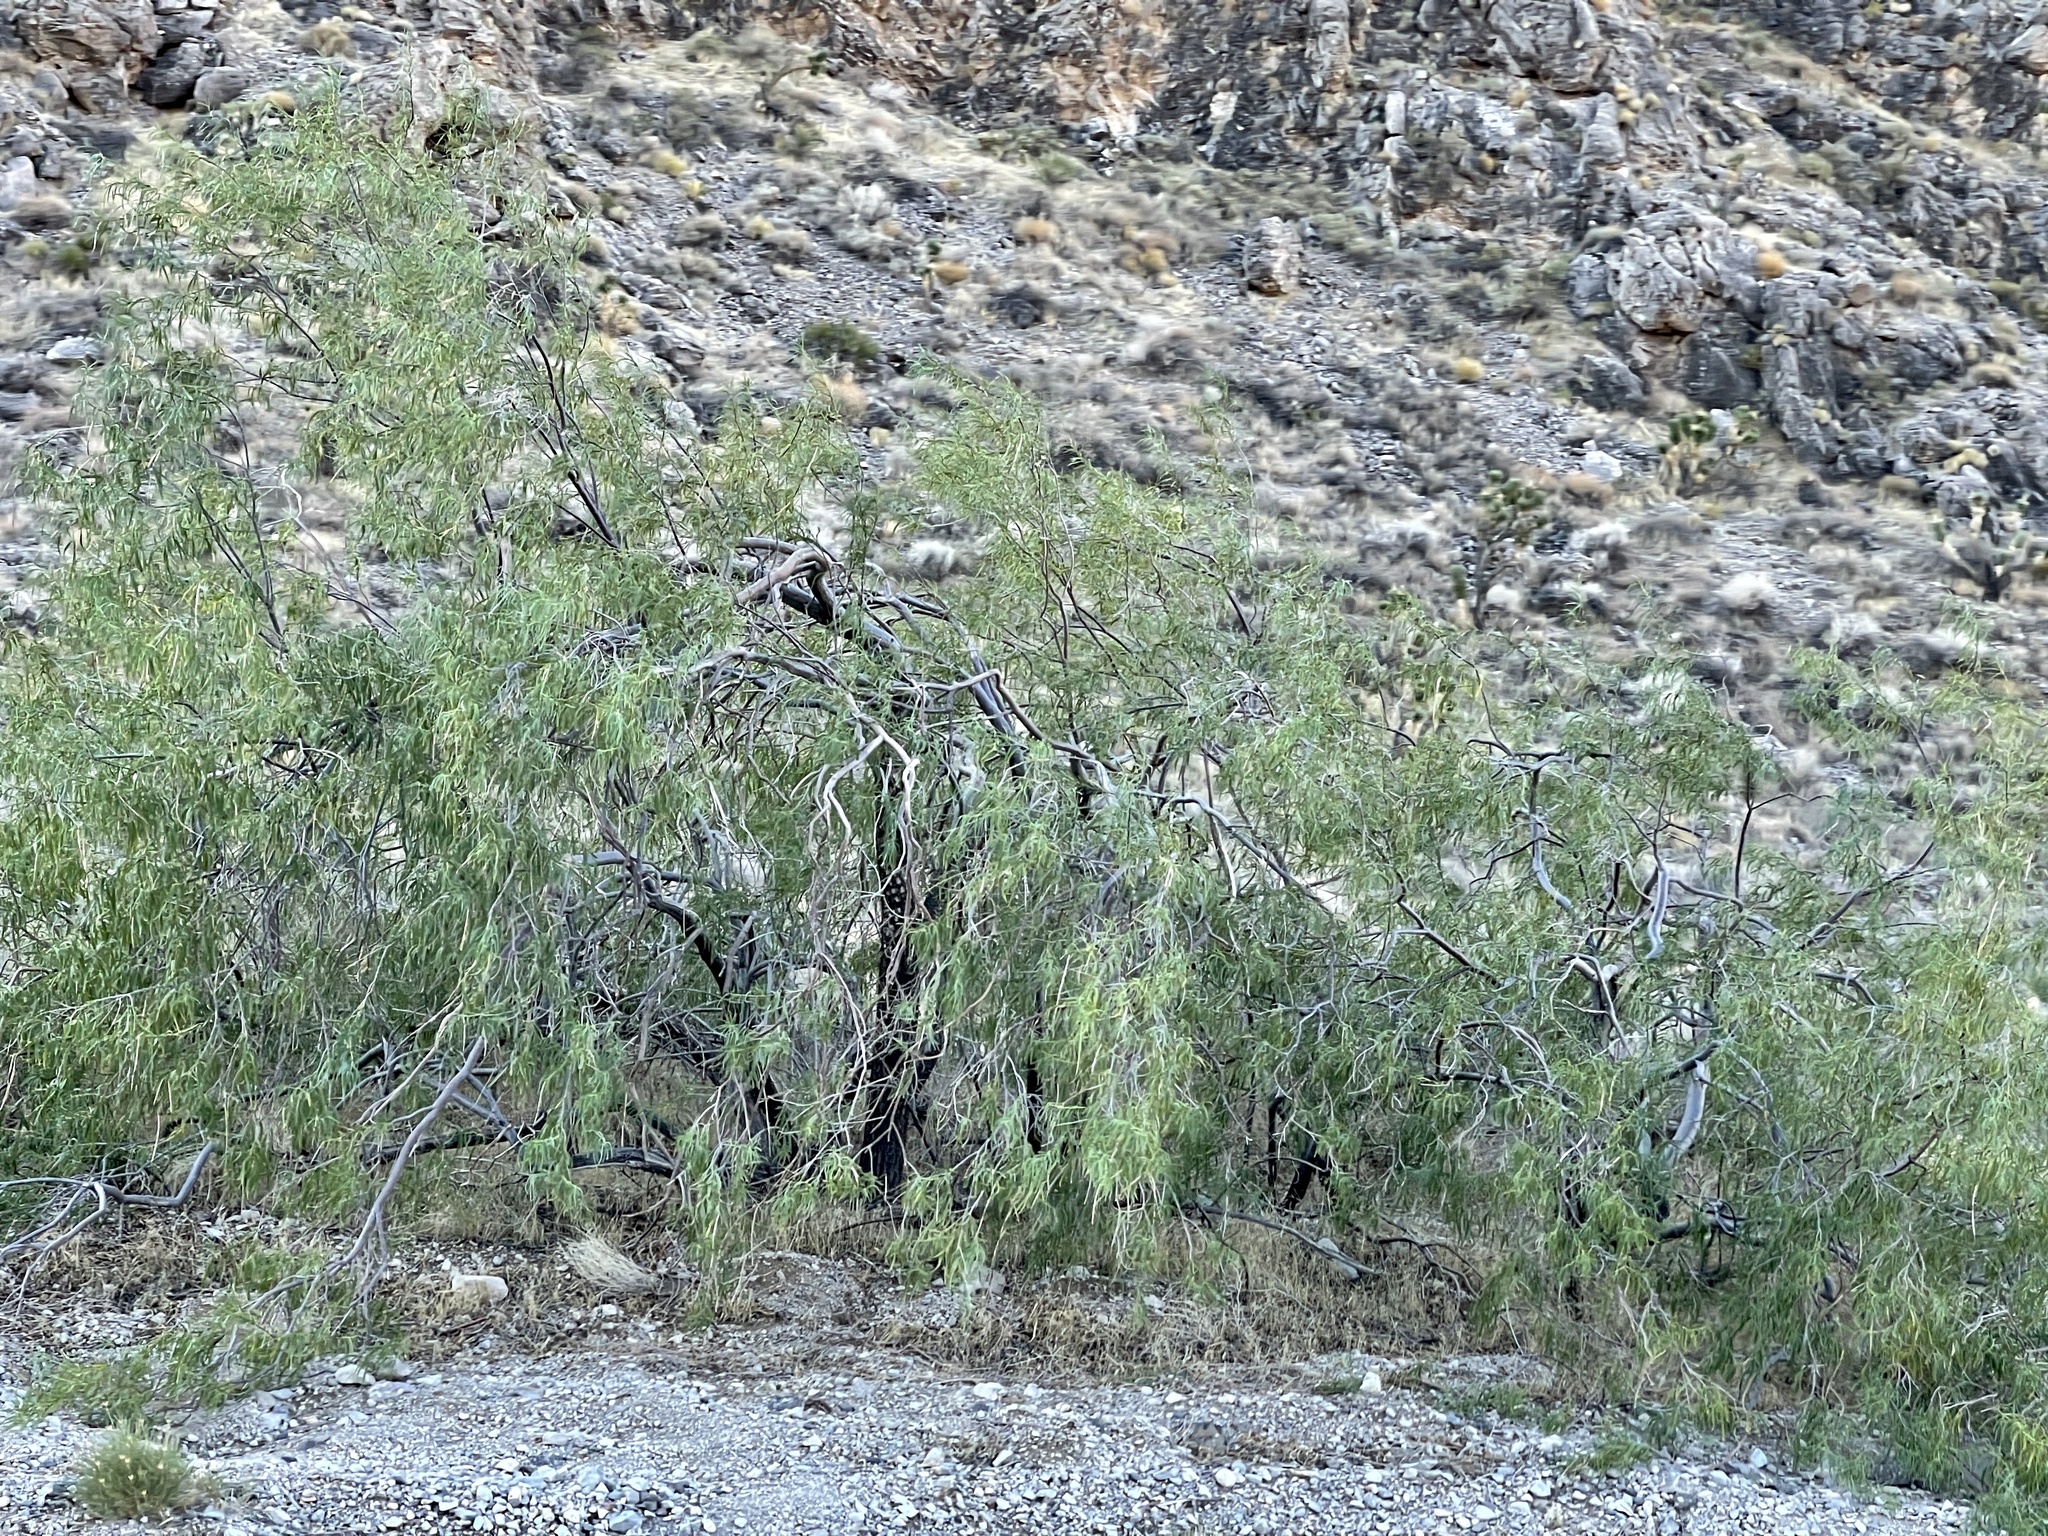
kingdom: Plantae
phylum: Tracheophyta
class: Magnoliopsida
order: Lamiales
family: Bignoniaceae
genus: Chilopsis
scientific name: Chilopsis linearis
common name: Desert-willow
